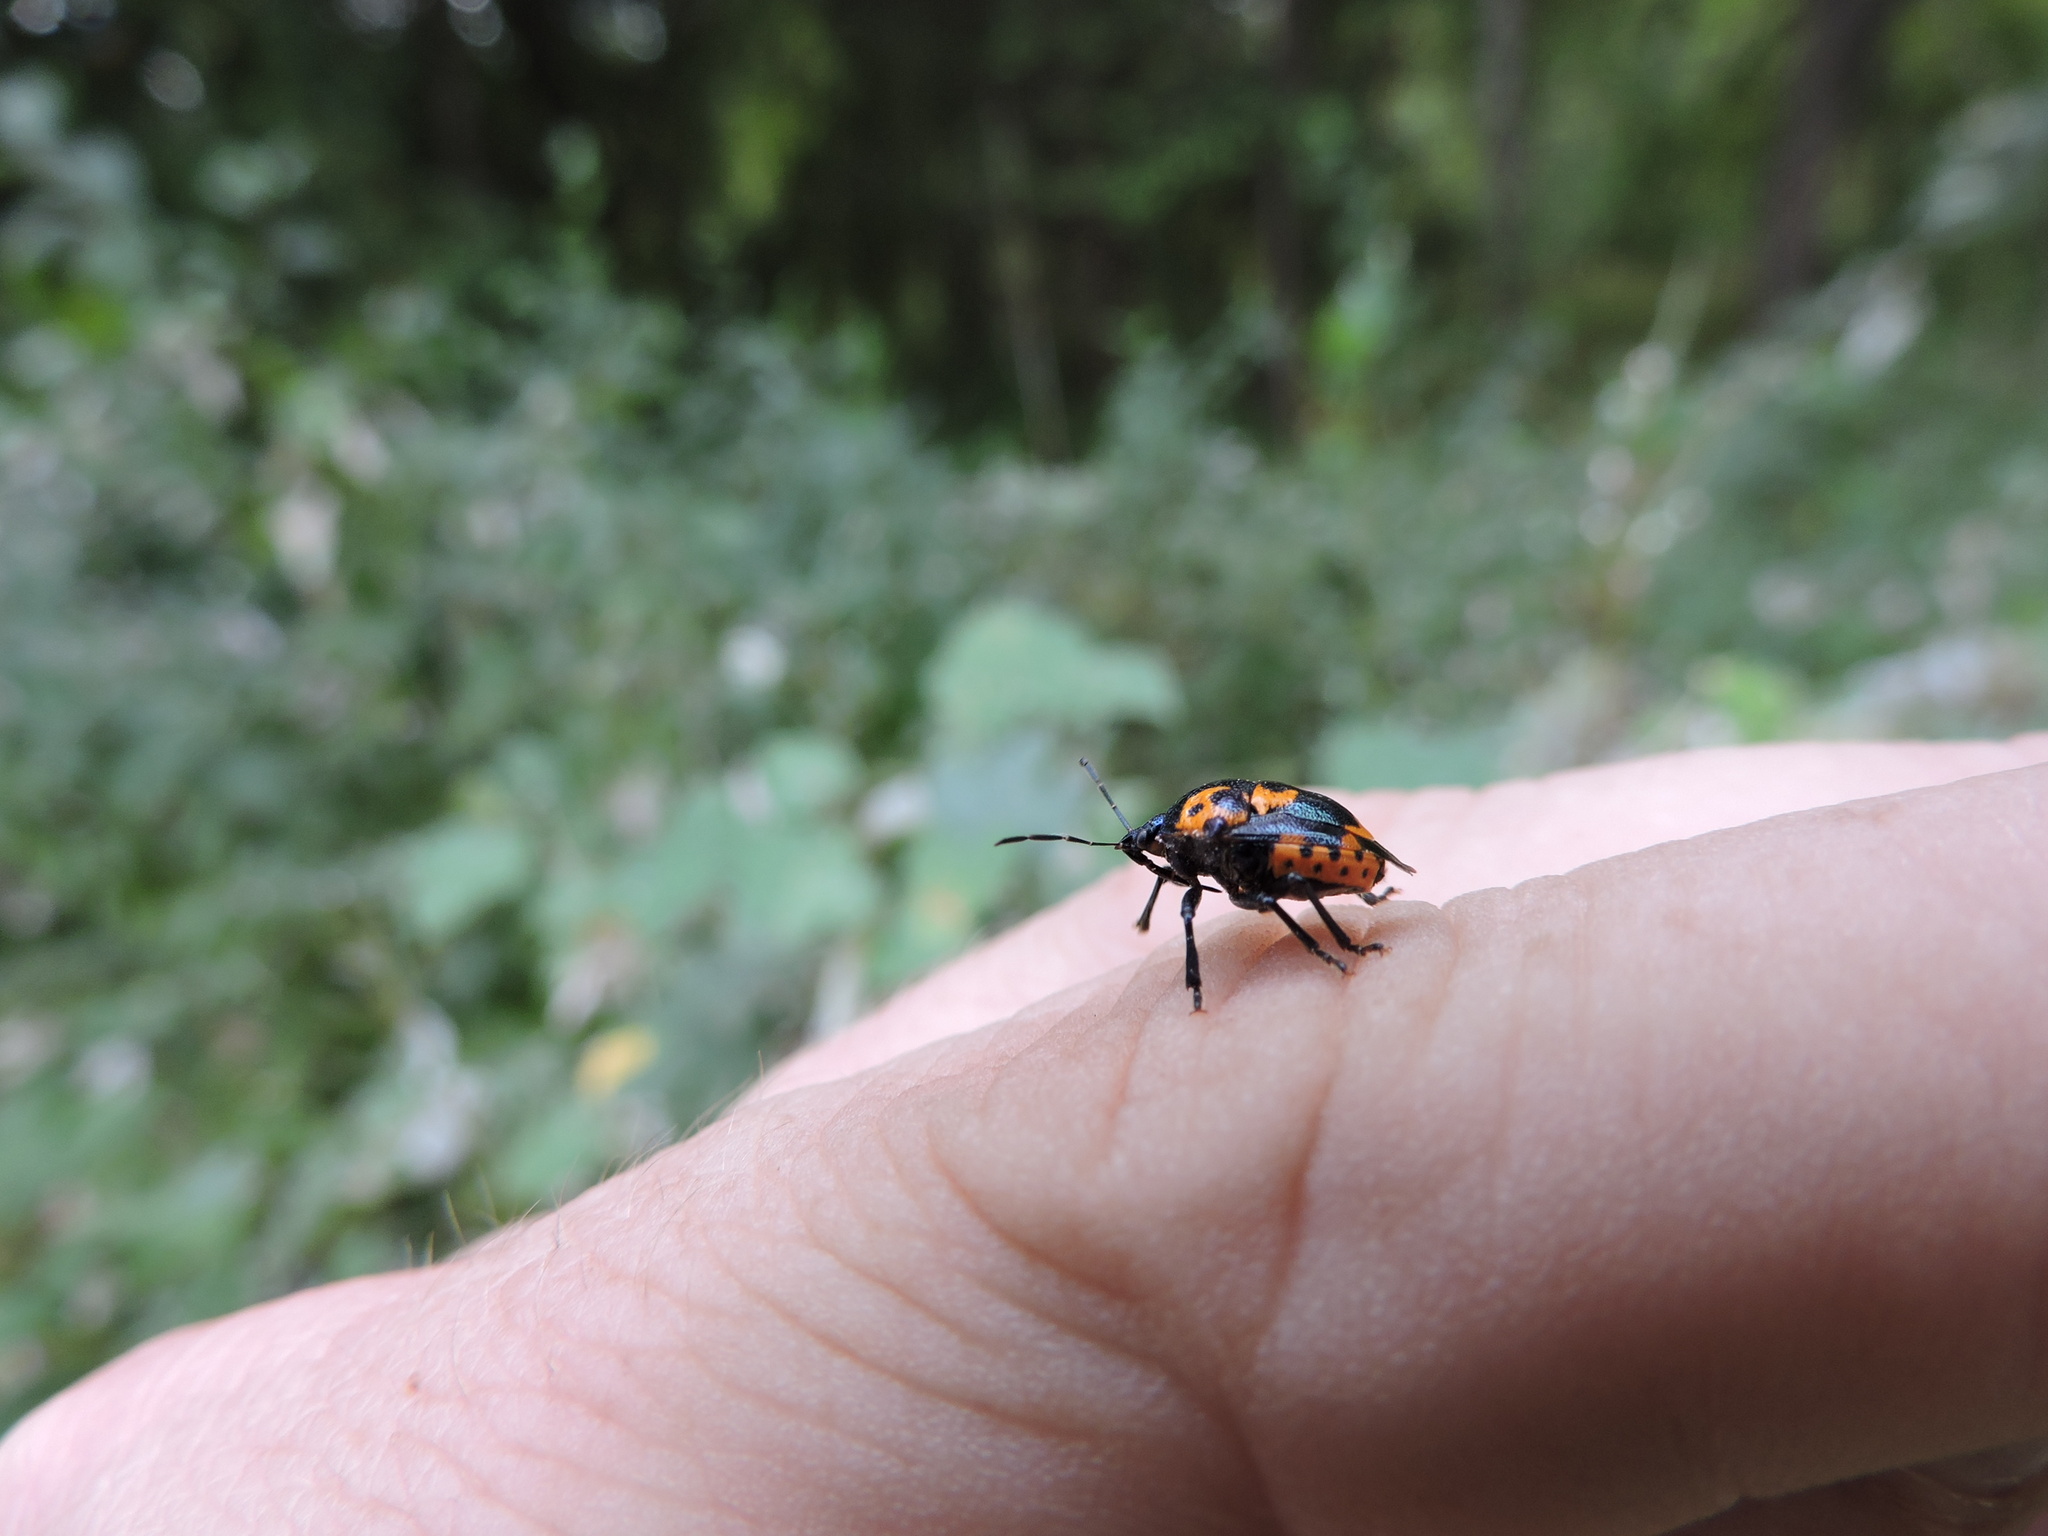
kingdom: Animalia
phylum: Arthropoda
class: Insecta
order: Hemiptera
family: Pentatomidae
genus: Stiretrus
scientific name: Stiretrus anchorago
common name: Anchor stink bug
